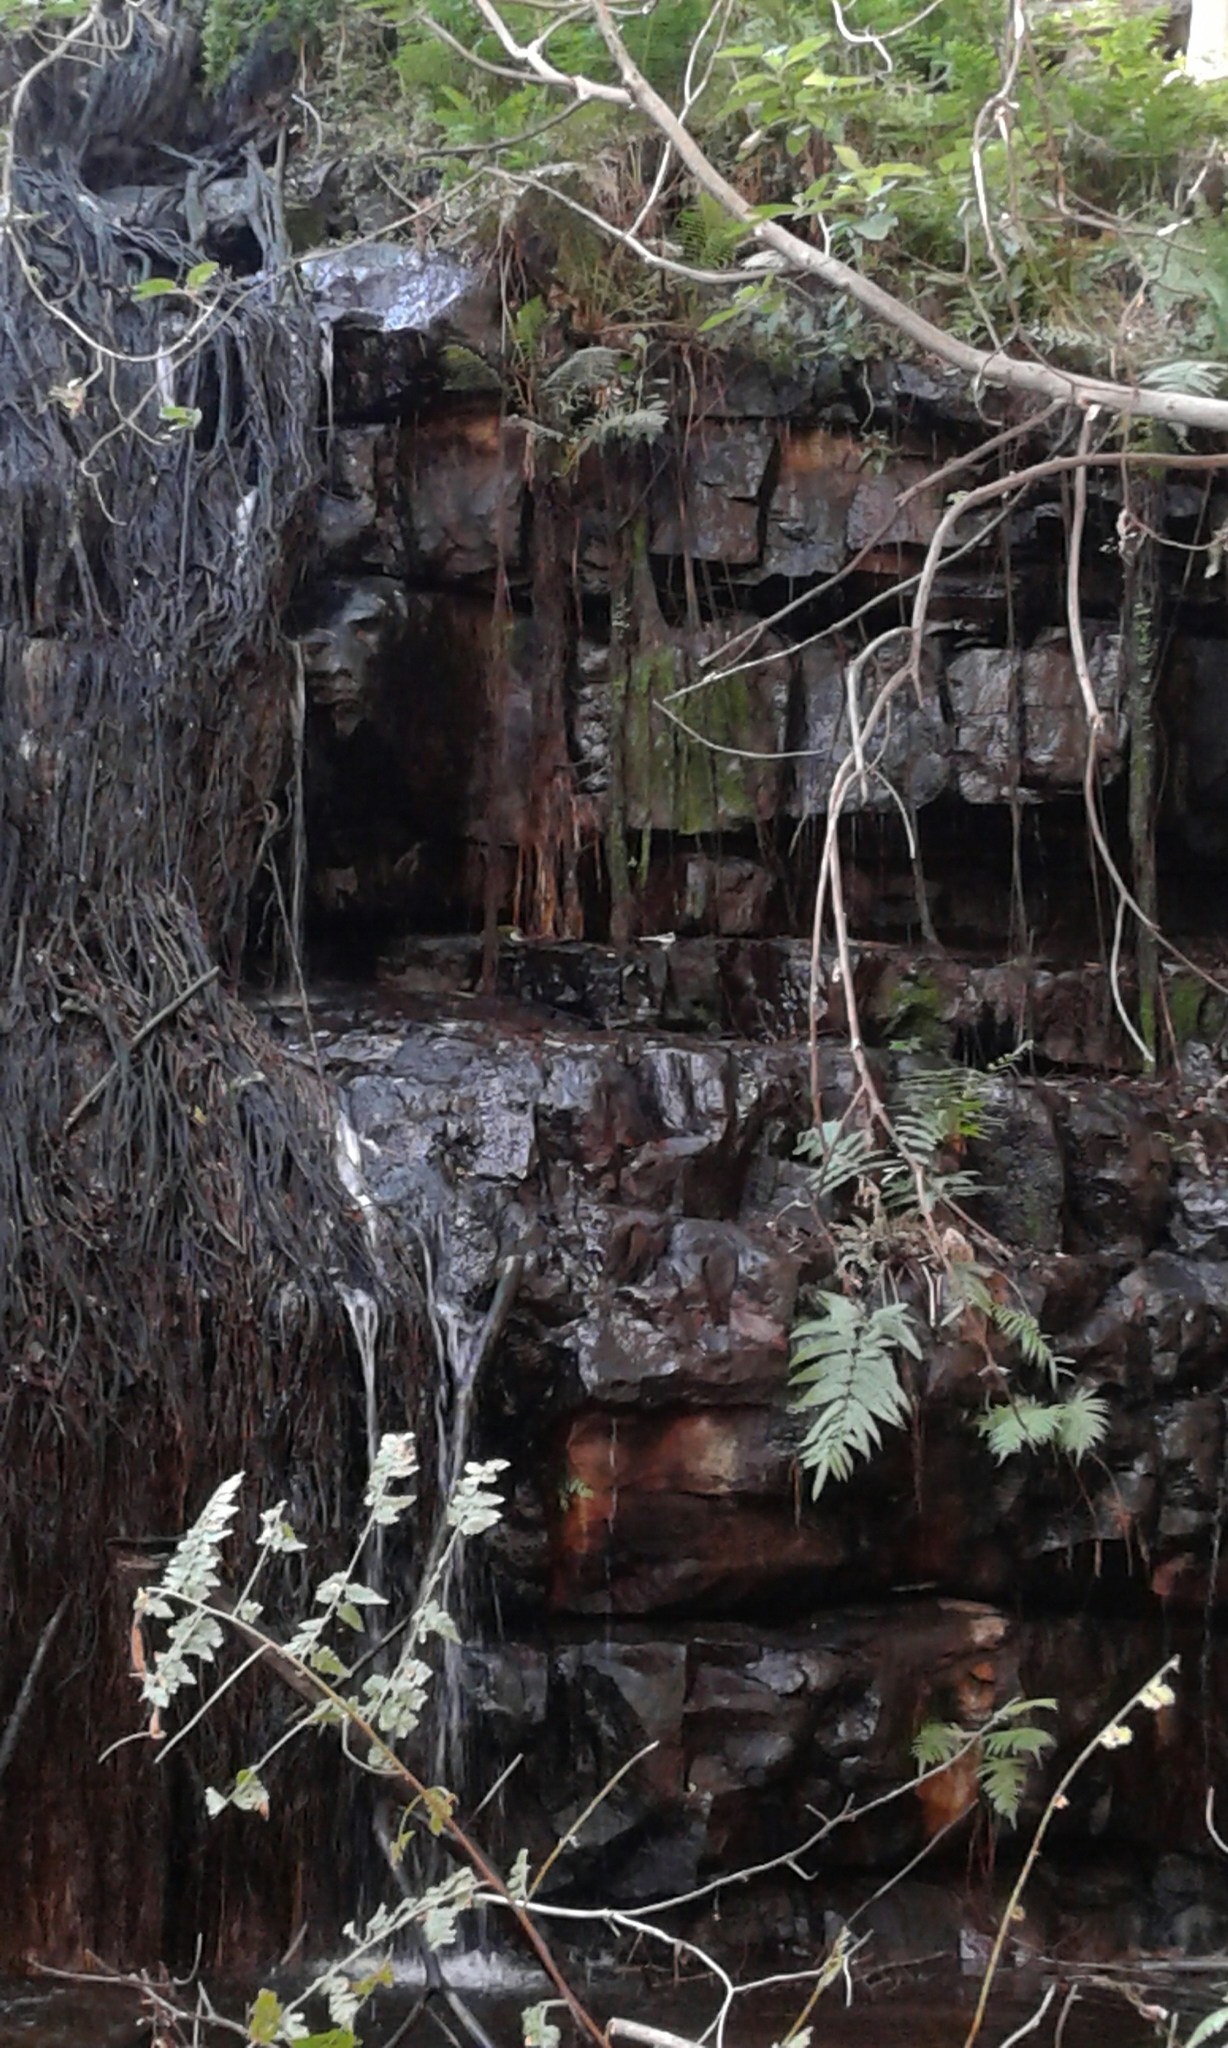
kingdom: Animalia
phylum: Chordata
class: Aves
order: Passeriformes
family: Motacillidae
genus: Motacilla
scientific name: Motacilla clara
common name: Mountain wagtail
